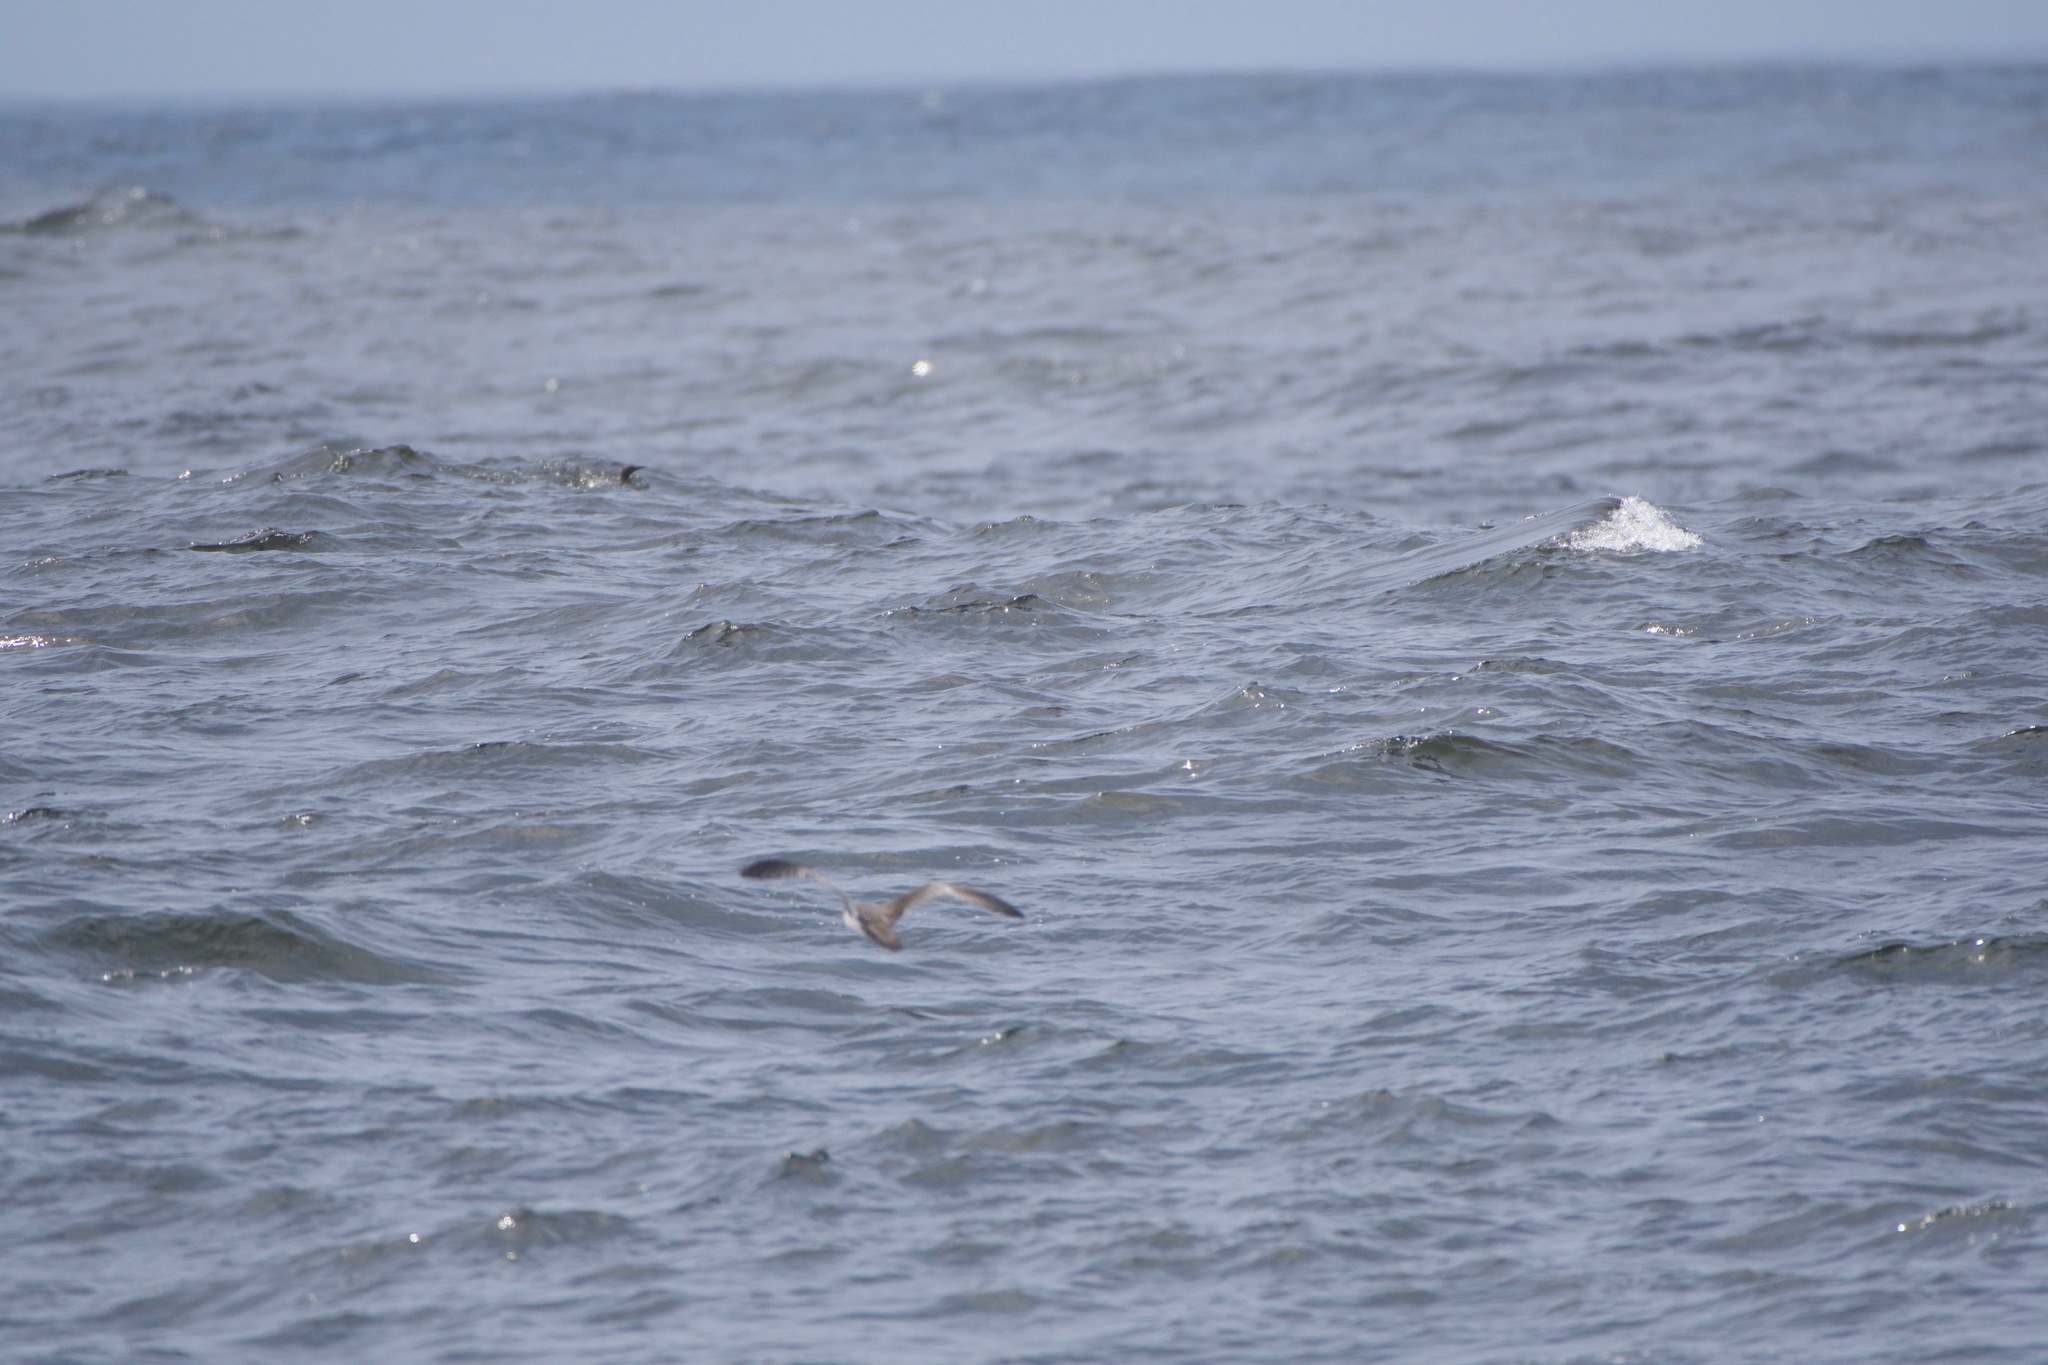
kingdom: Animalia
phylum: Chordata
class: Aves
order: Procellariiformes
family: Procellariidae
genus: Puffinus
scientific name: Puffinus bulleri
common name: Buller's shearwater
